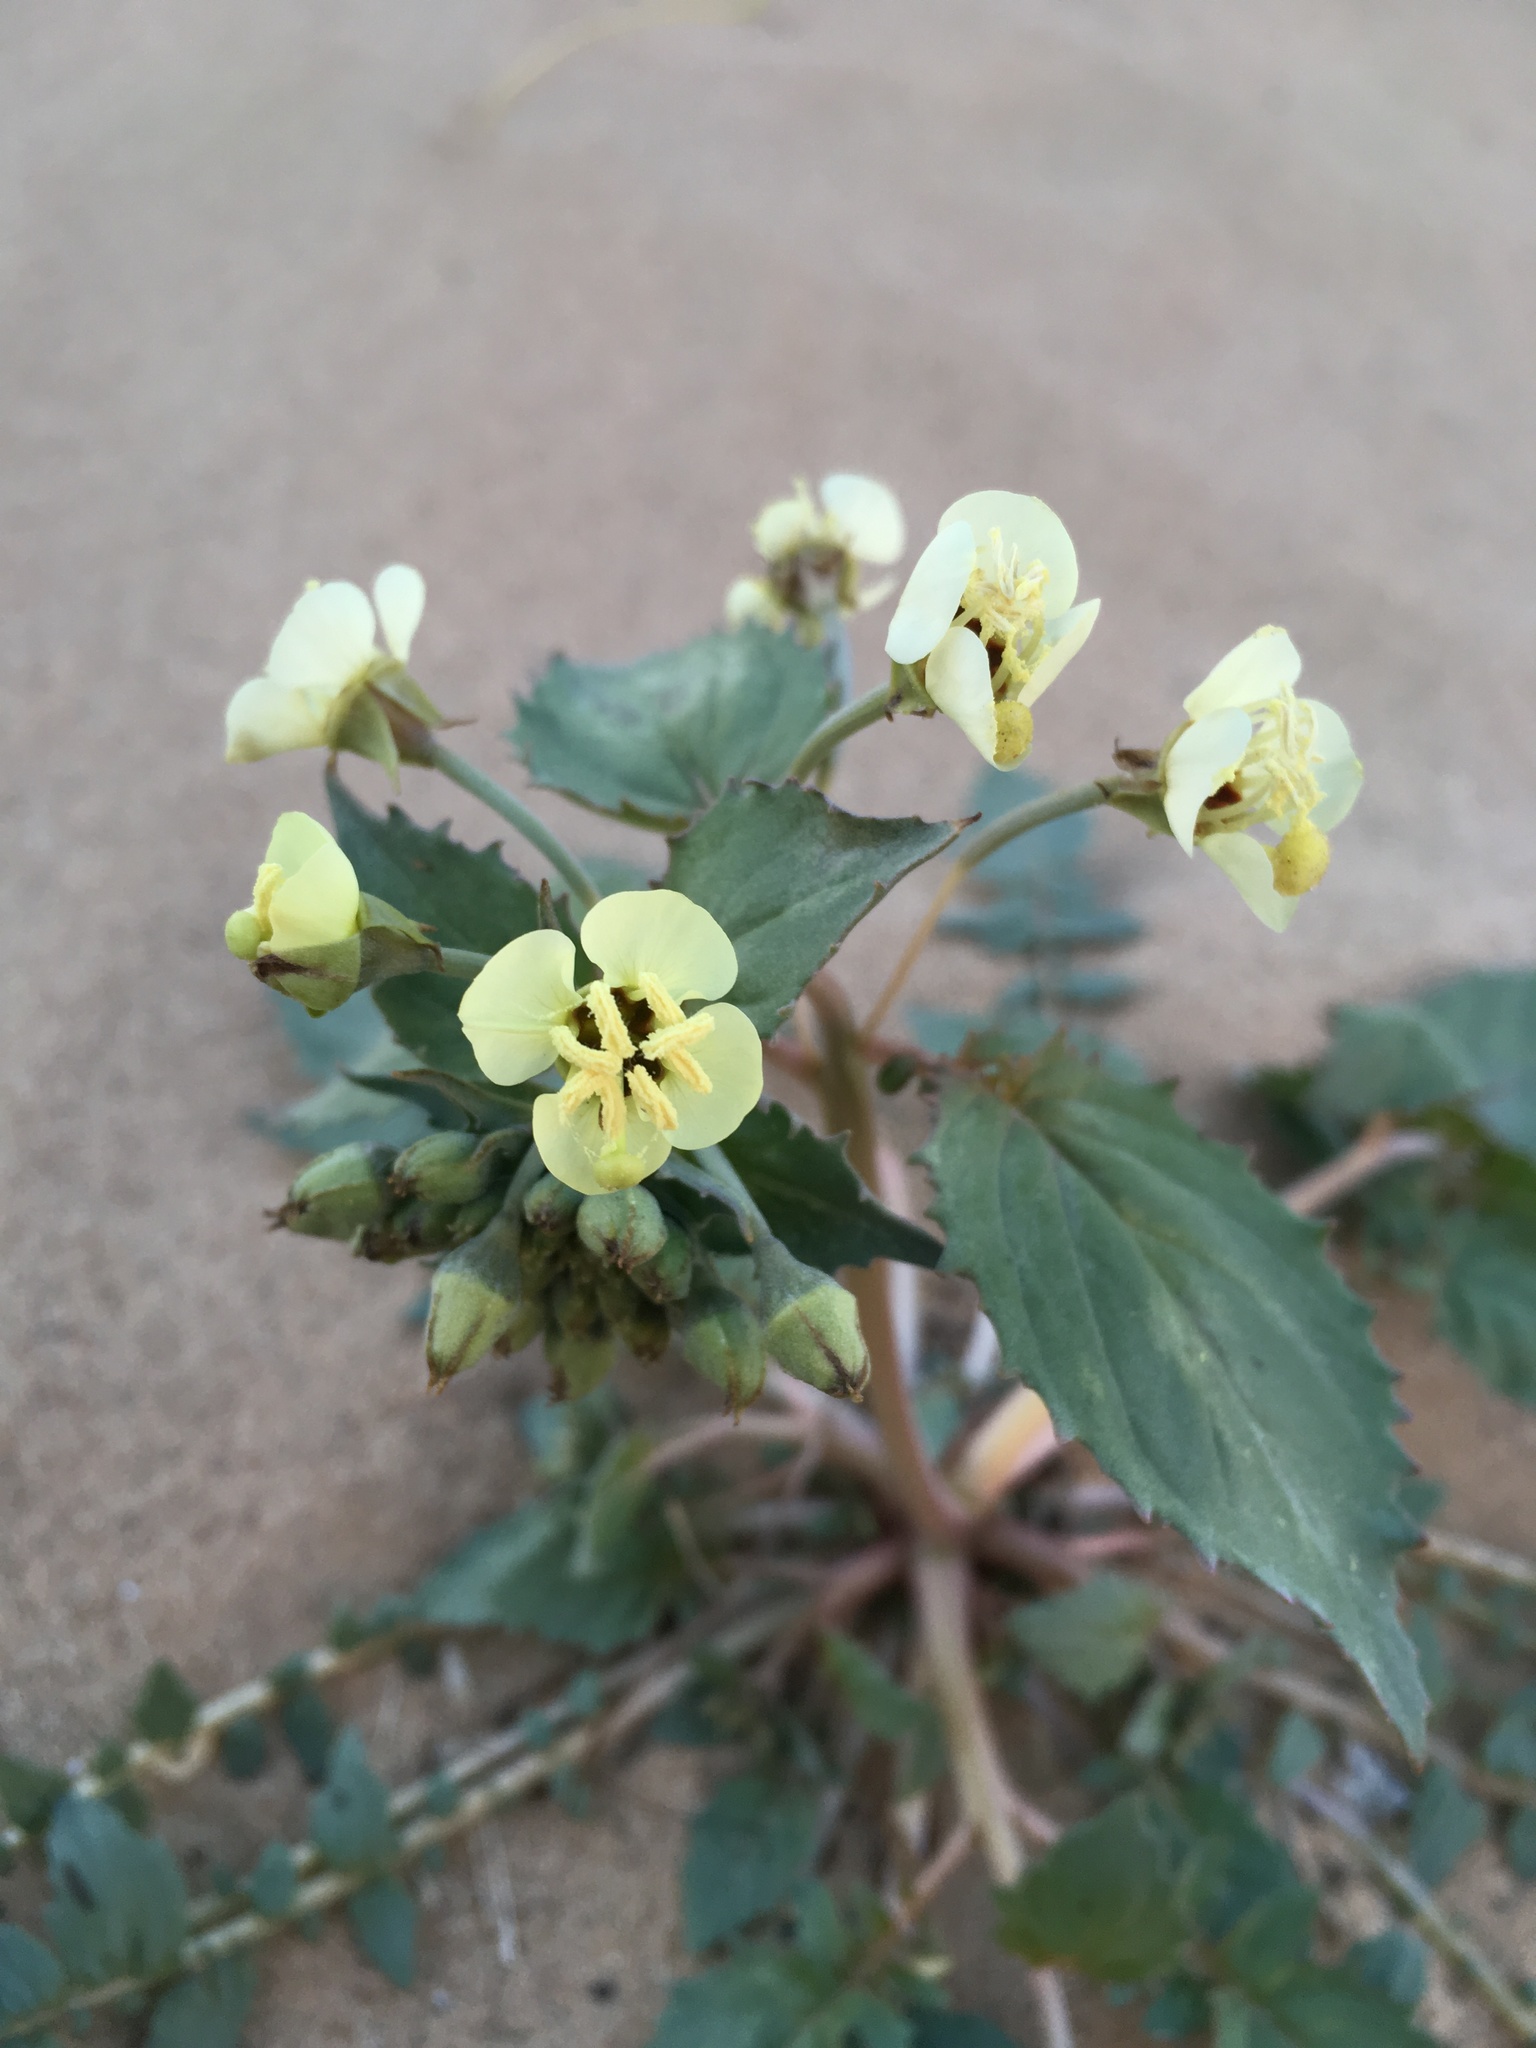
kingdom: Plantae
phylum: Tracheophyta
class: Magnoliopsida
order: Myrtales
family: Onagraceae
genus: Chylismia
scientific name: Chylismia claviformis
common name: Browneyes
